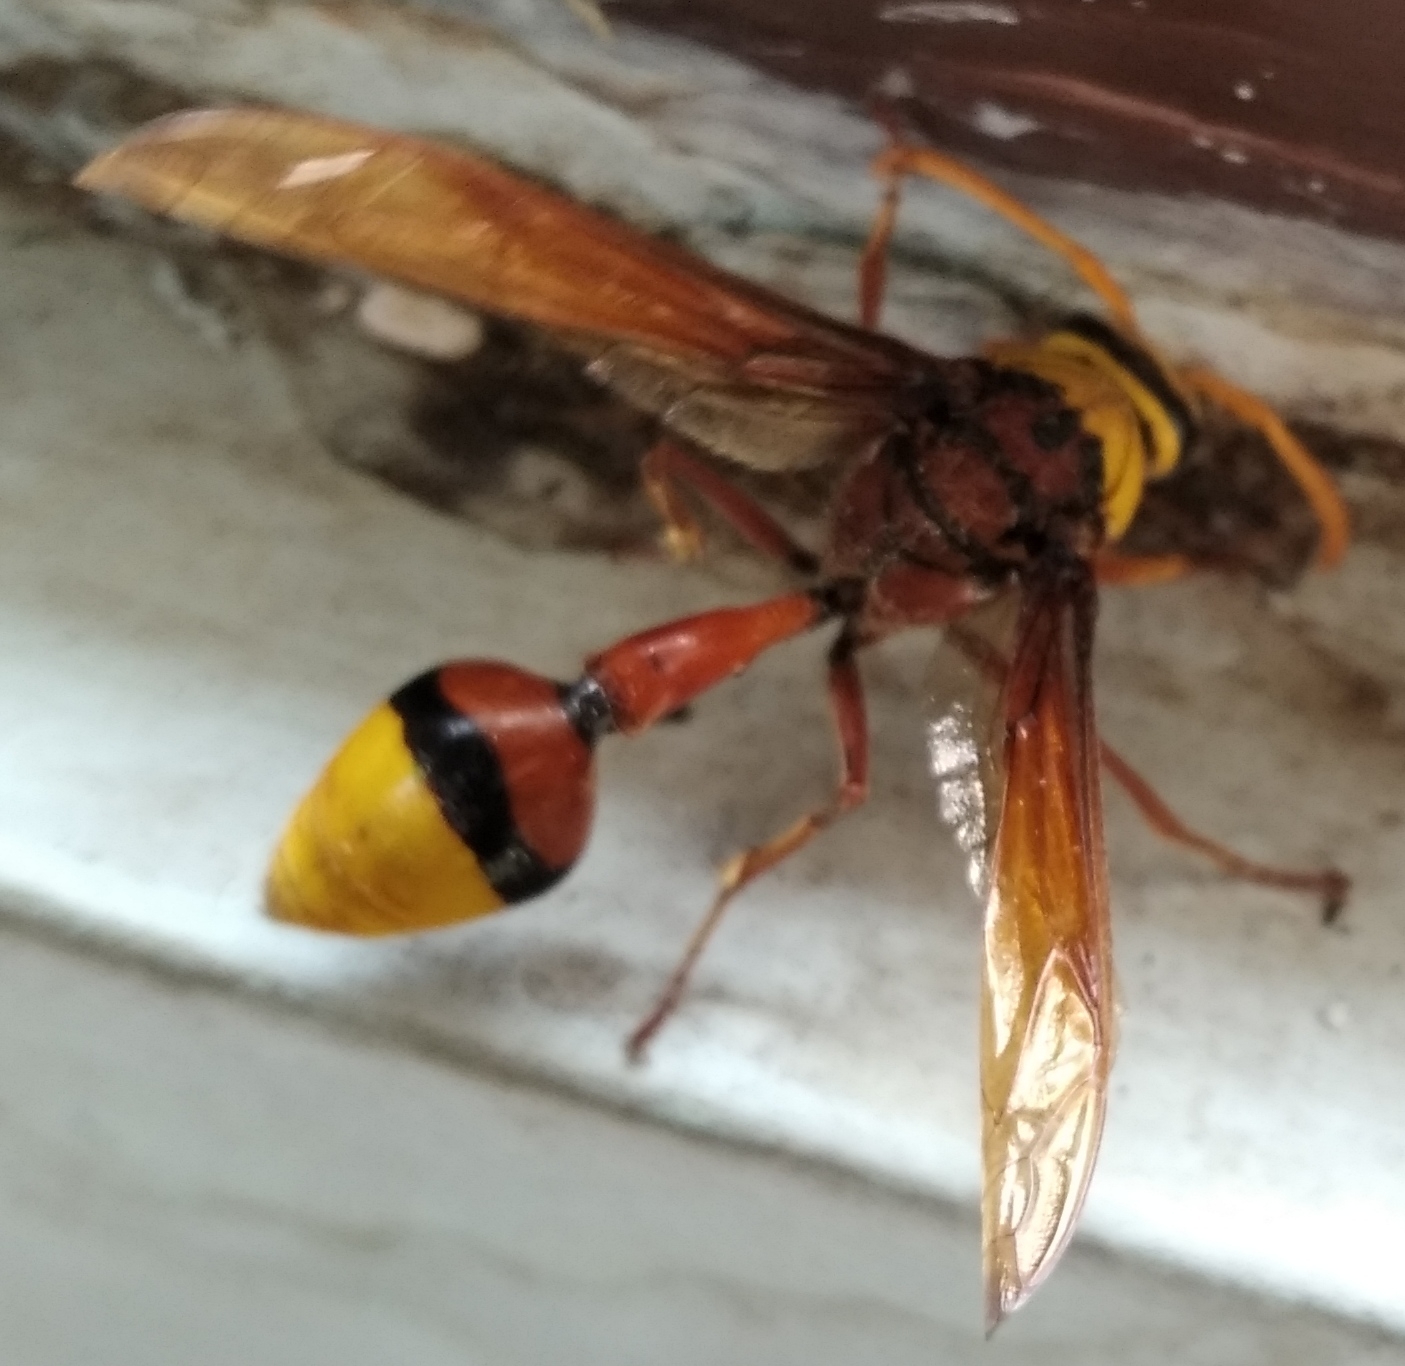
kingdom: Animalia
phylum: Arthropoda
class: Insecta
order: Hymenoptera
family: Eumenidae
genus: Delta
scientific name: Delta pyriforme
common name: Wasp
